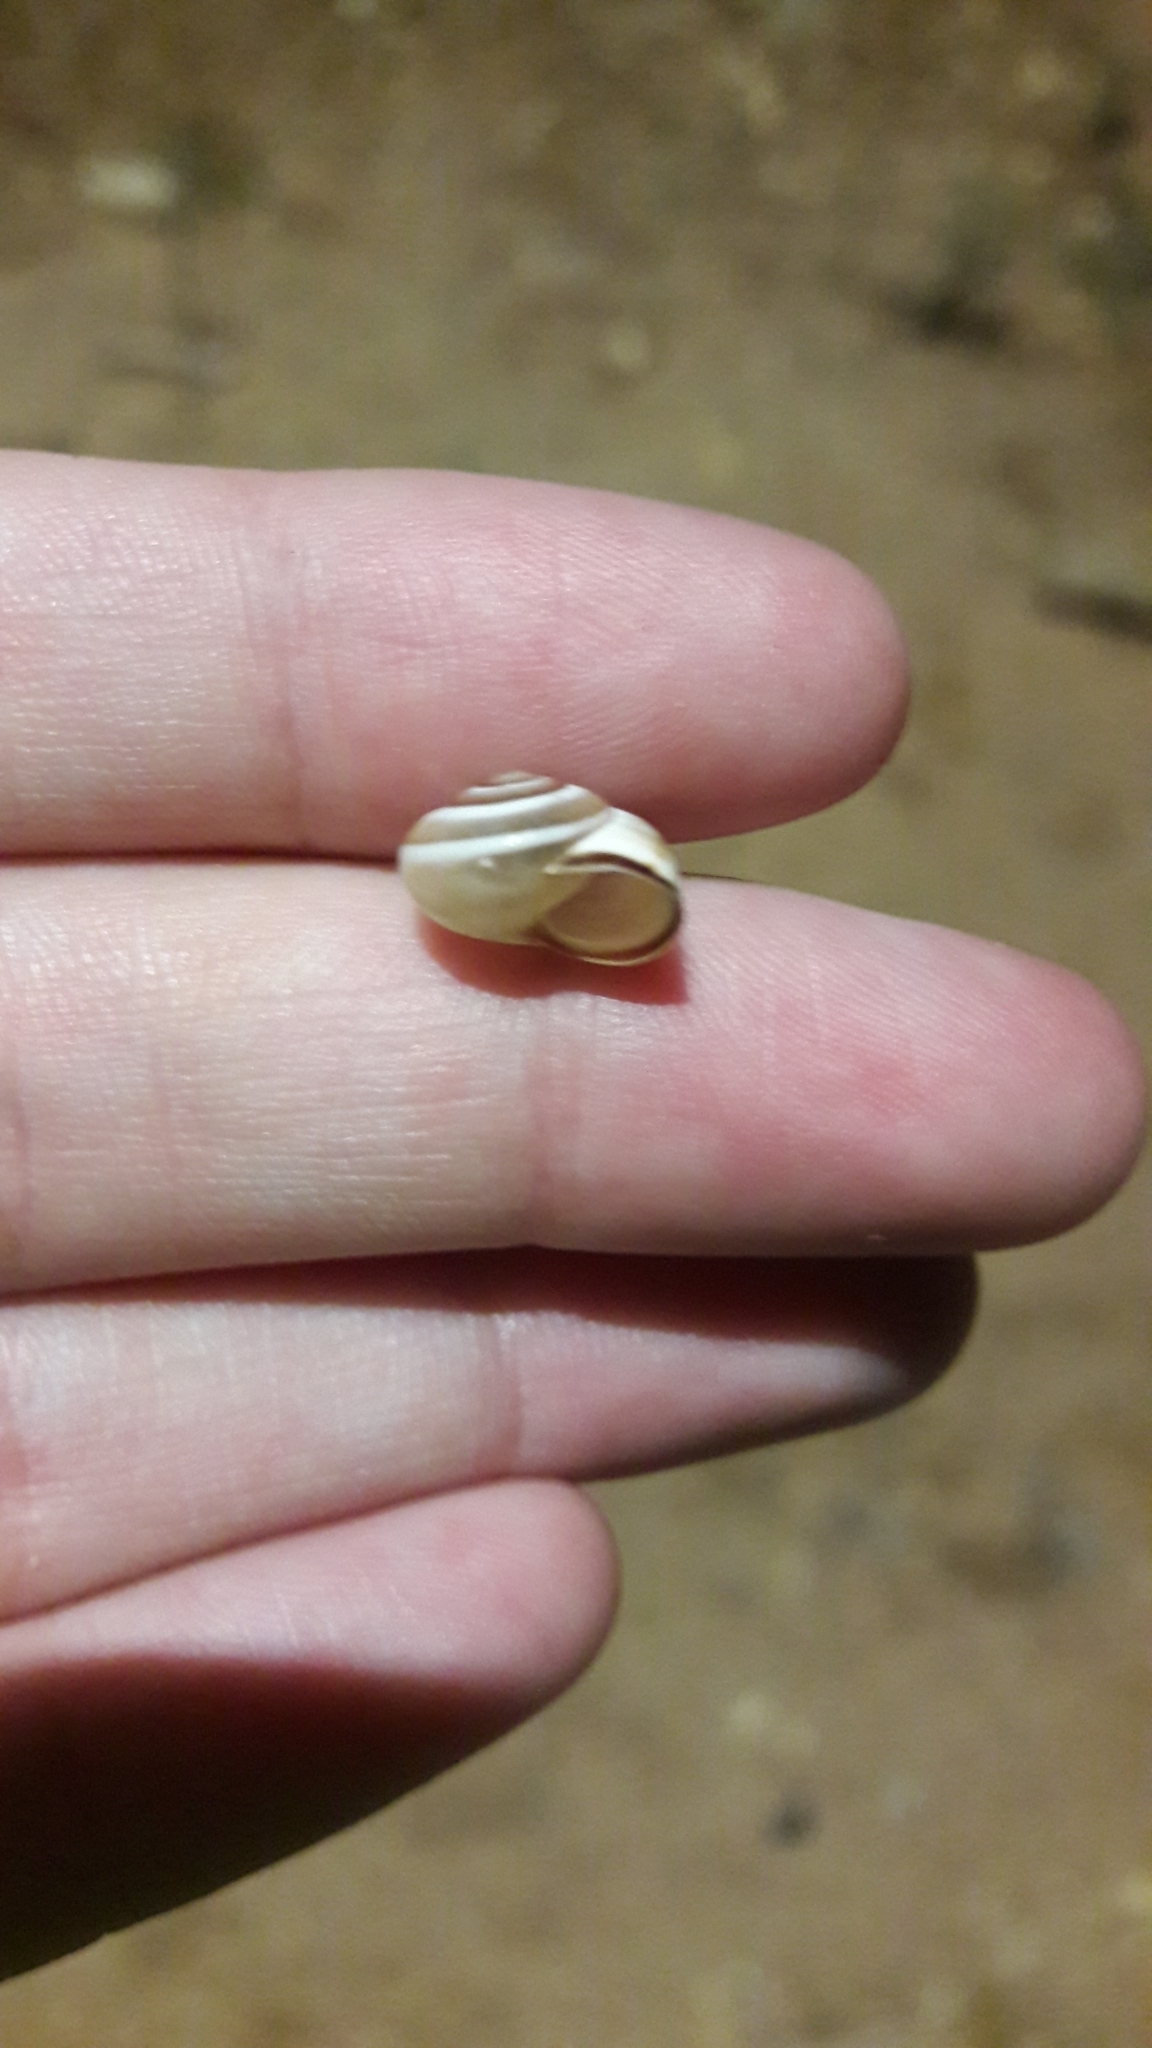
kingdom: Animalia
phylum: Mollusca
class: Gastropoda
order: Stylommatophora
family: Hygromiidae
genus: Monacha
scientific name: Monacha syriaca
